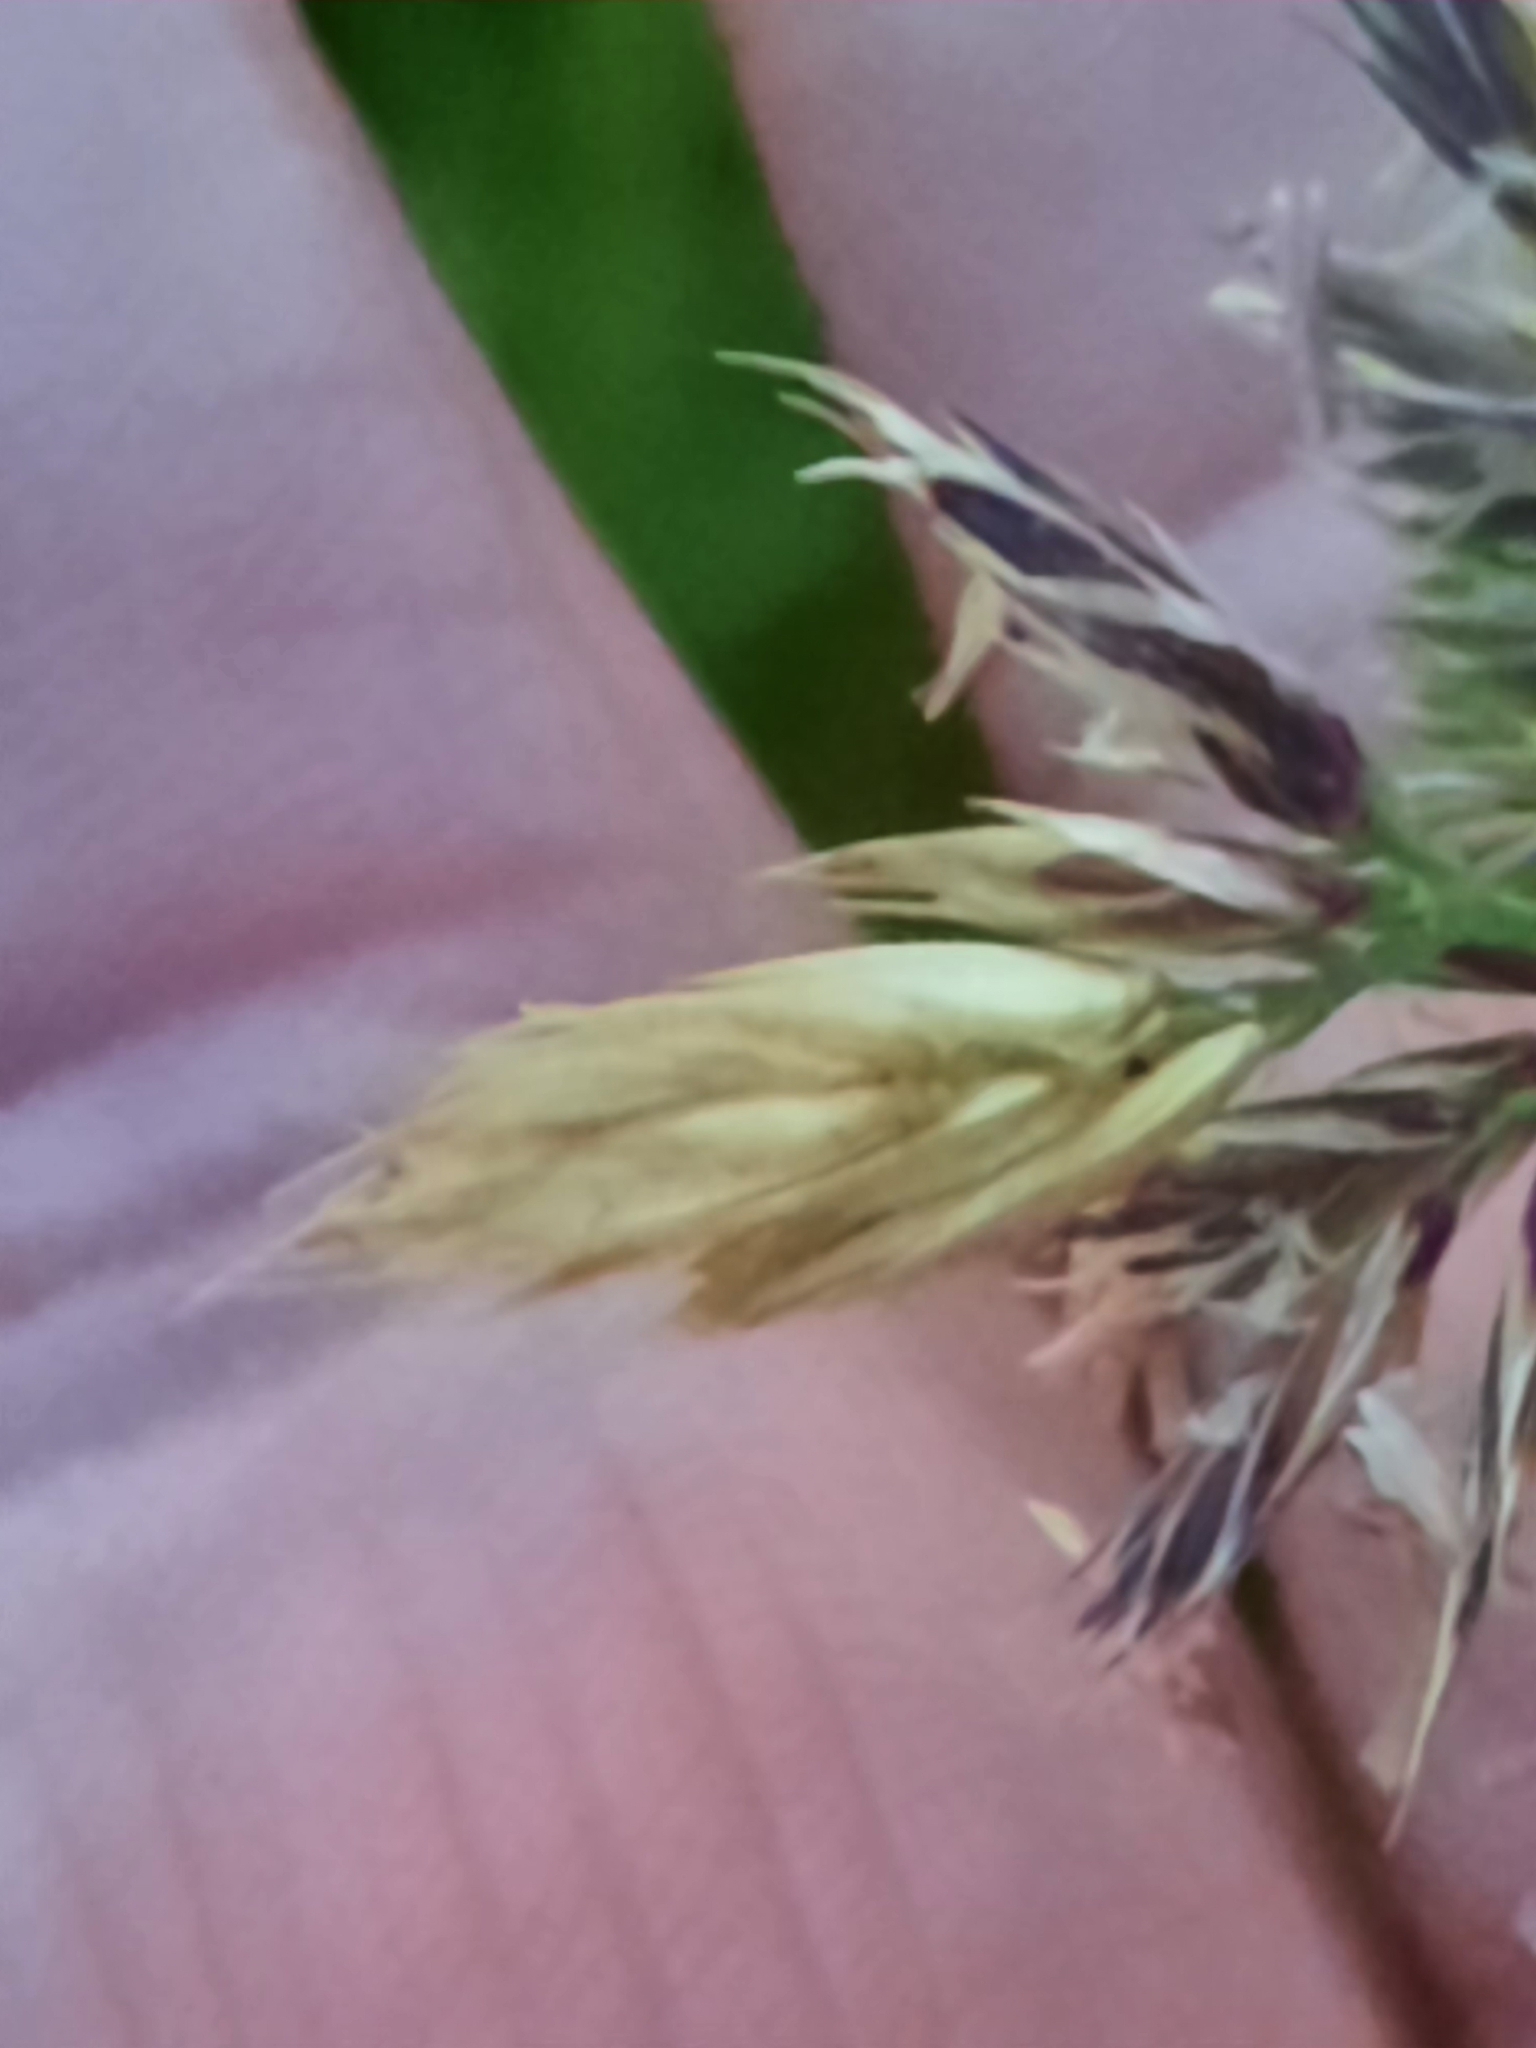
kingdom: Plantae
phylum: Tracheophyta
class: Liliopsida
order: Poales
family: Poaceae
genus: Dactylis
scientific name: Dactylis glomerata
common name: Orchardgrass
